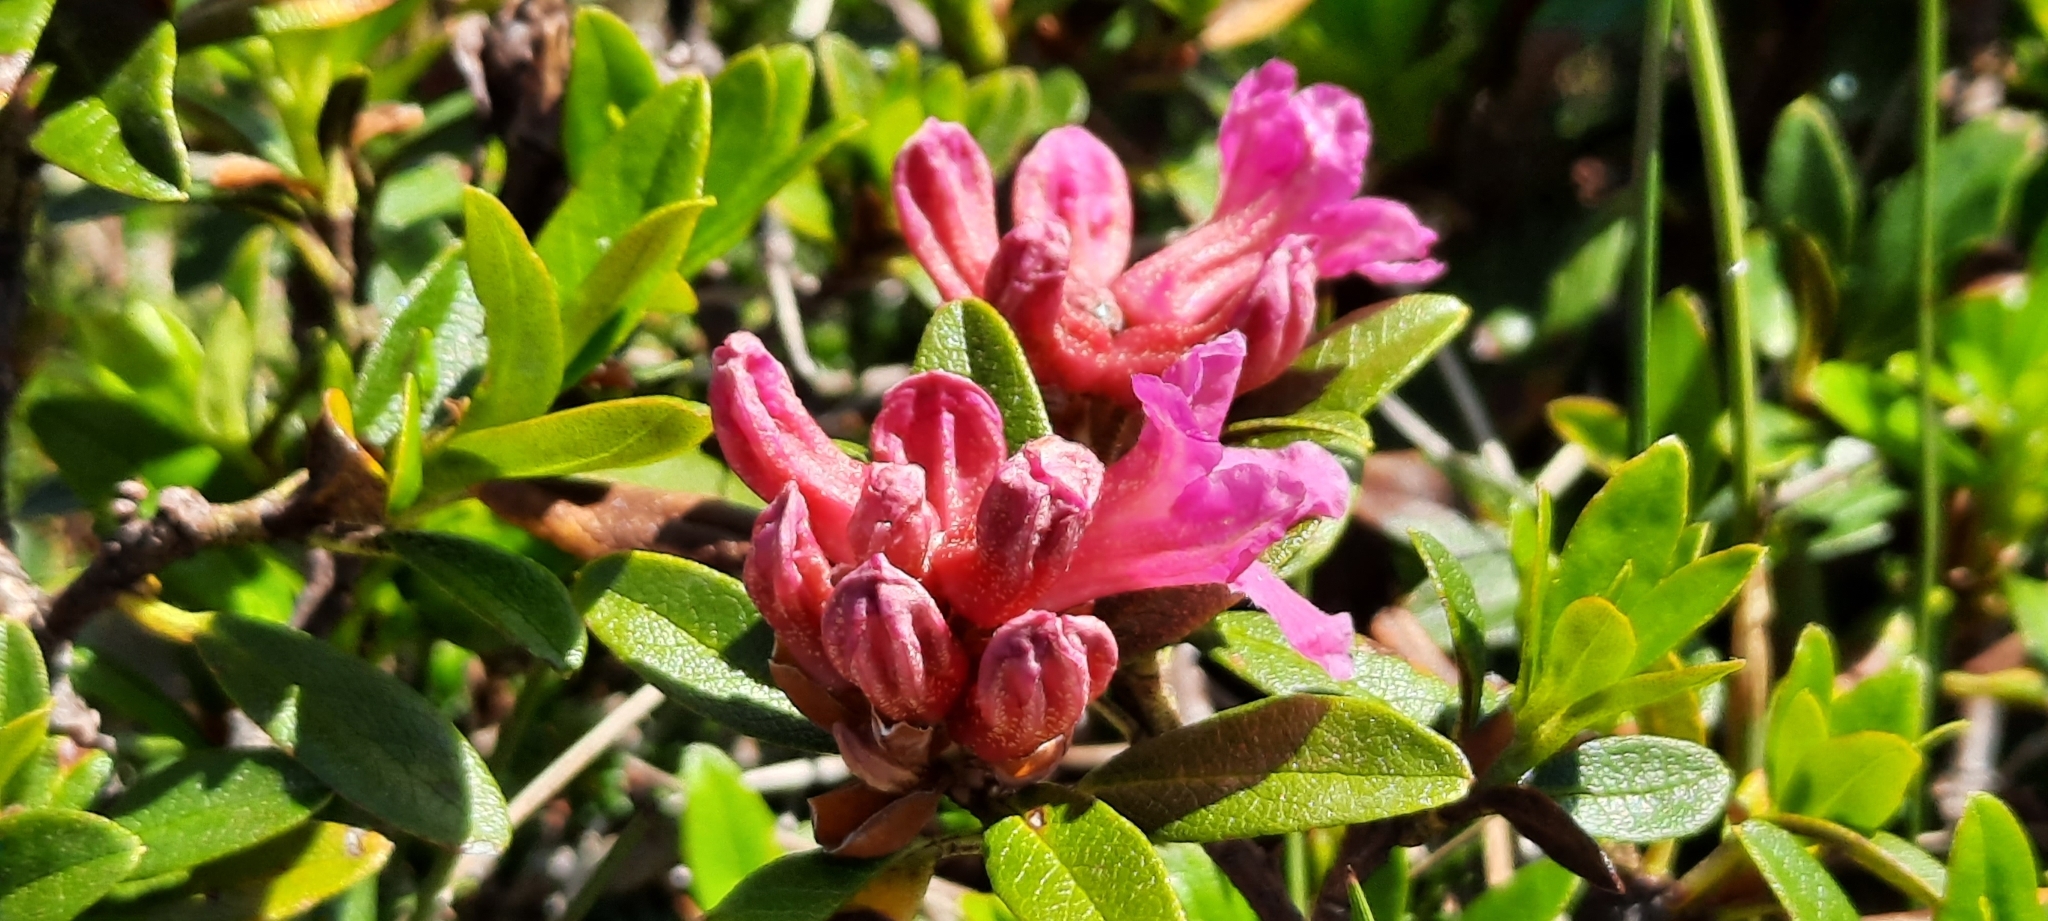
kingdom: Plantae
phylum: Tracheophyta
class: Magnoliopsida
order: Ericales
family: Ericaceae
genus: Rhododendron
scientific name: Rhododendron ferrugineum
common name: Alpenrose
